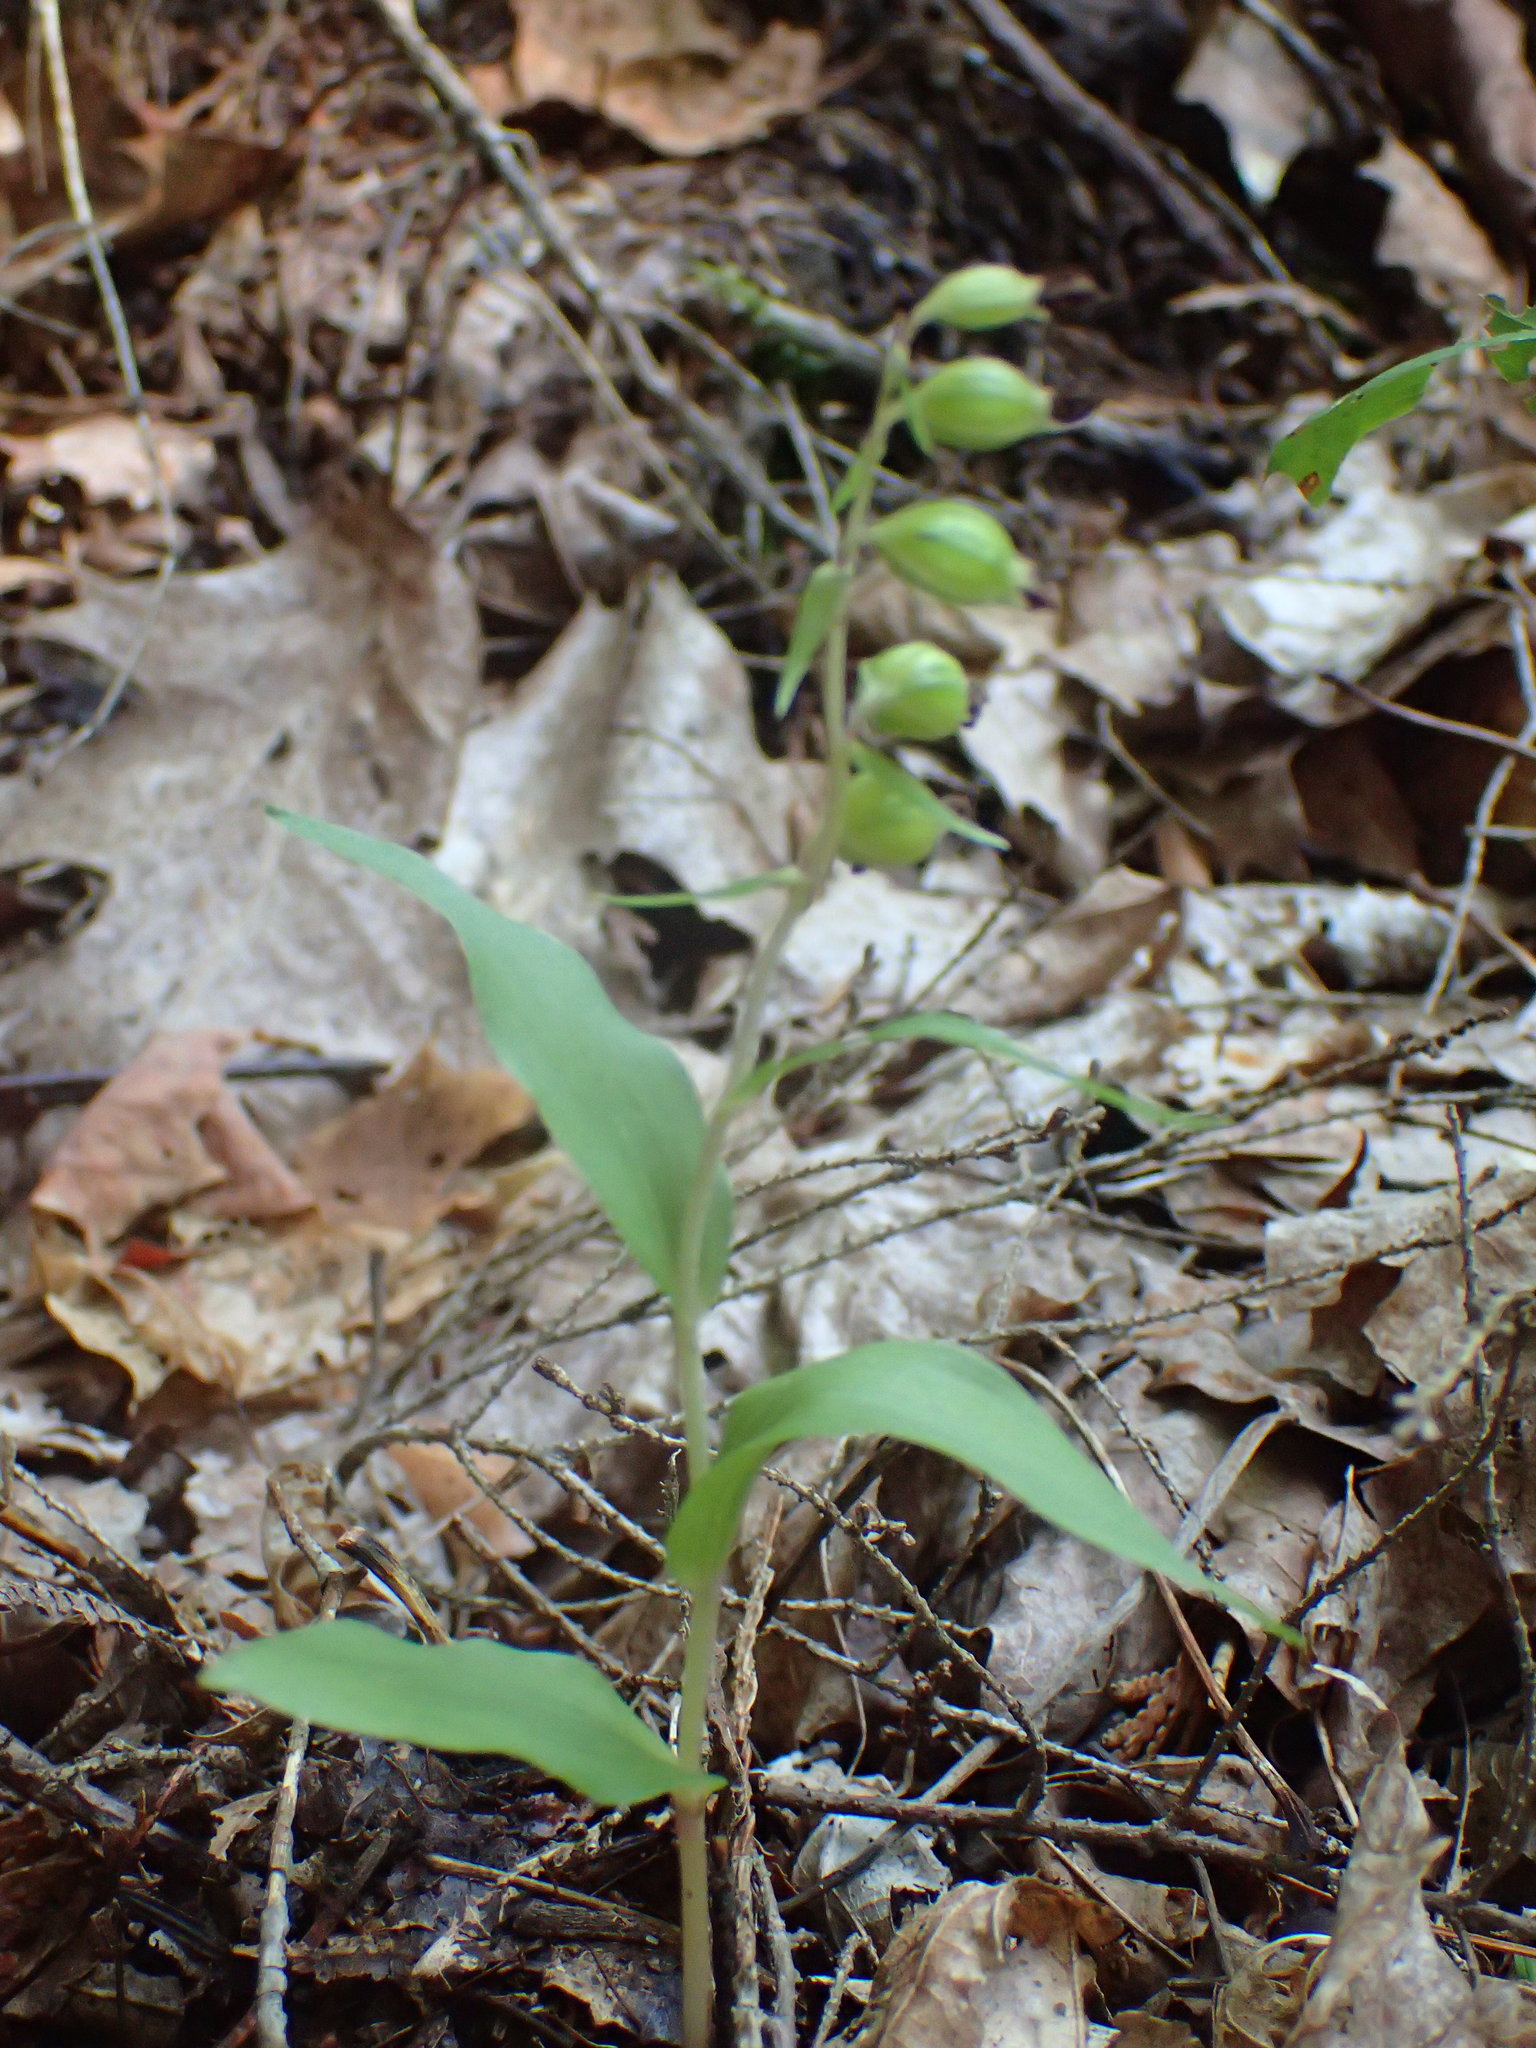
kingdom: Plantae
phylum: Tracheophyta
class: Liliopsida
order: Asparagales
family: Orchidaceae
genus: Epipactis
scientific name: Epipactis helleborine
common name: Broad-leaved helleborine
